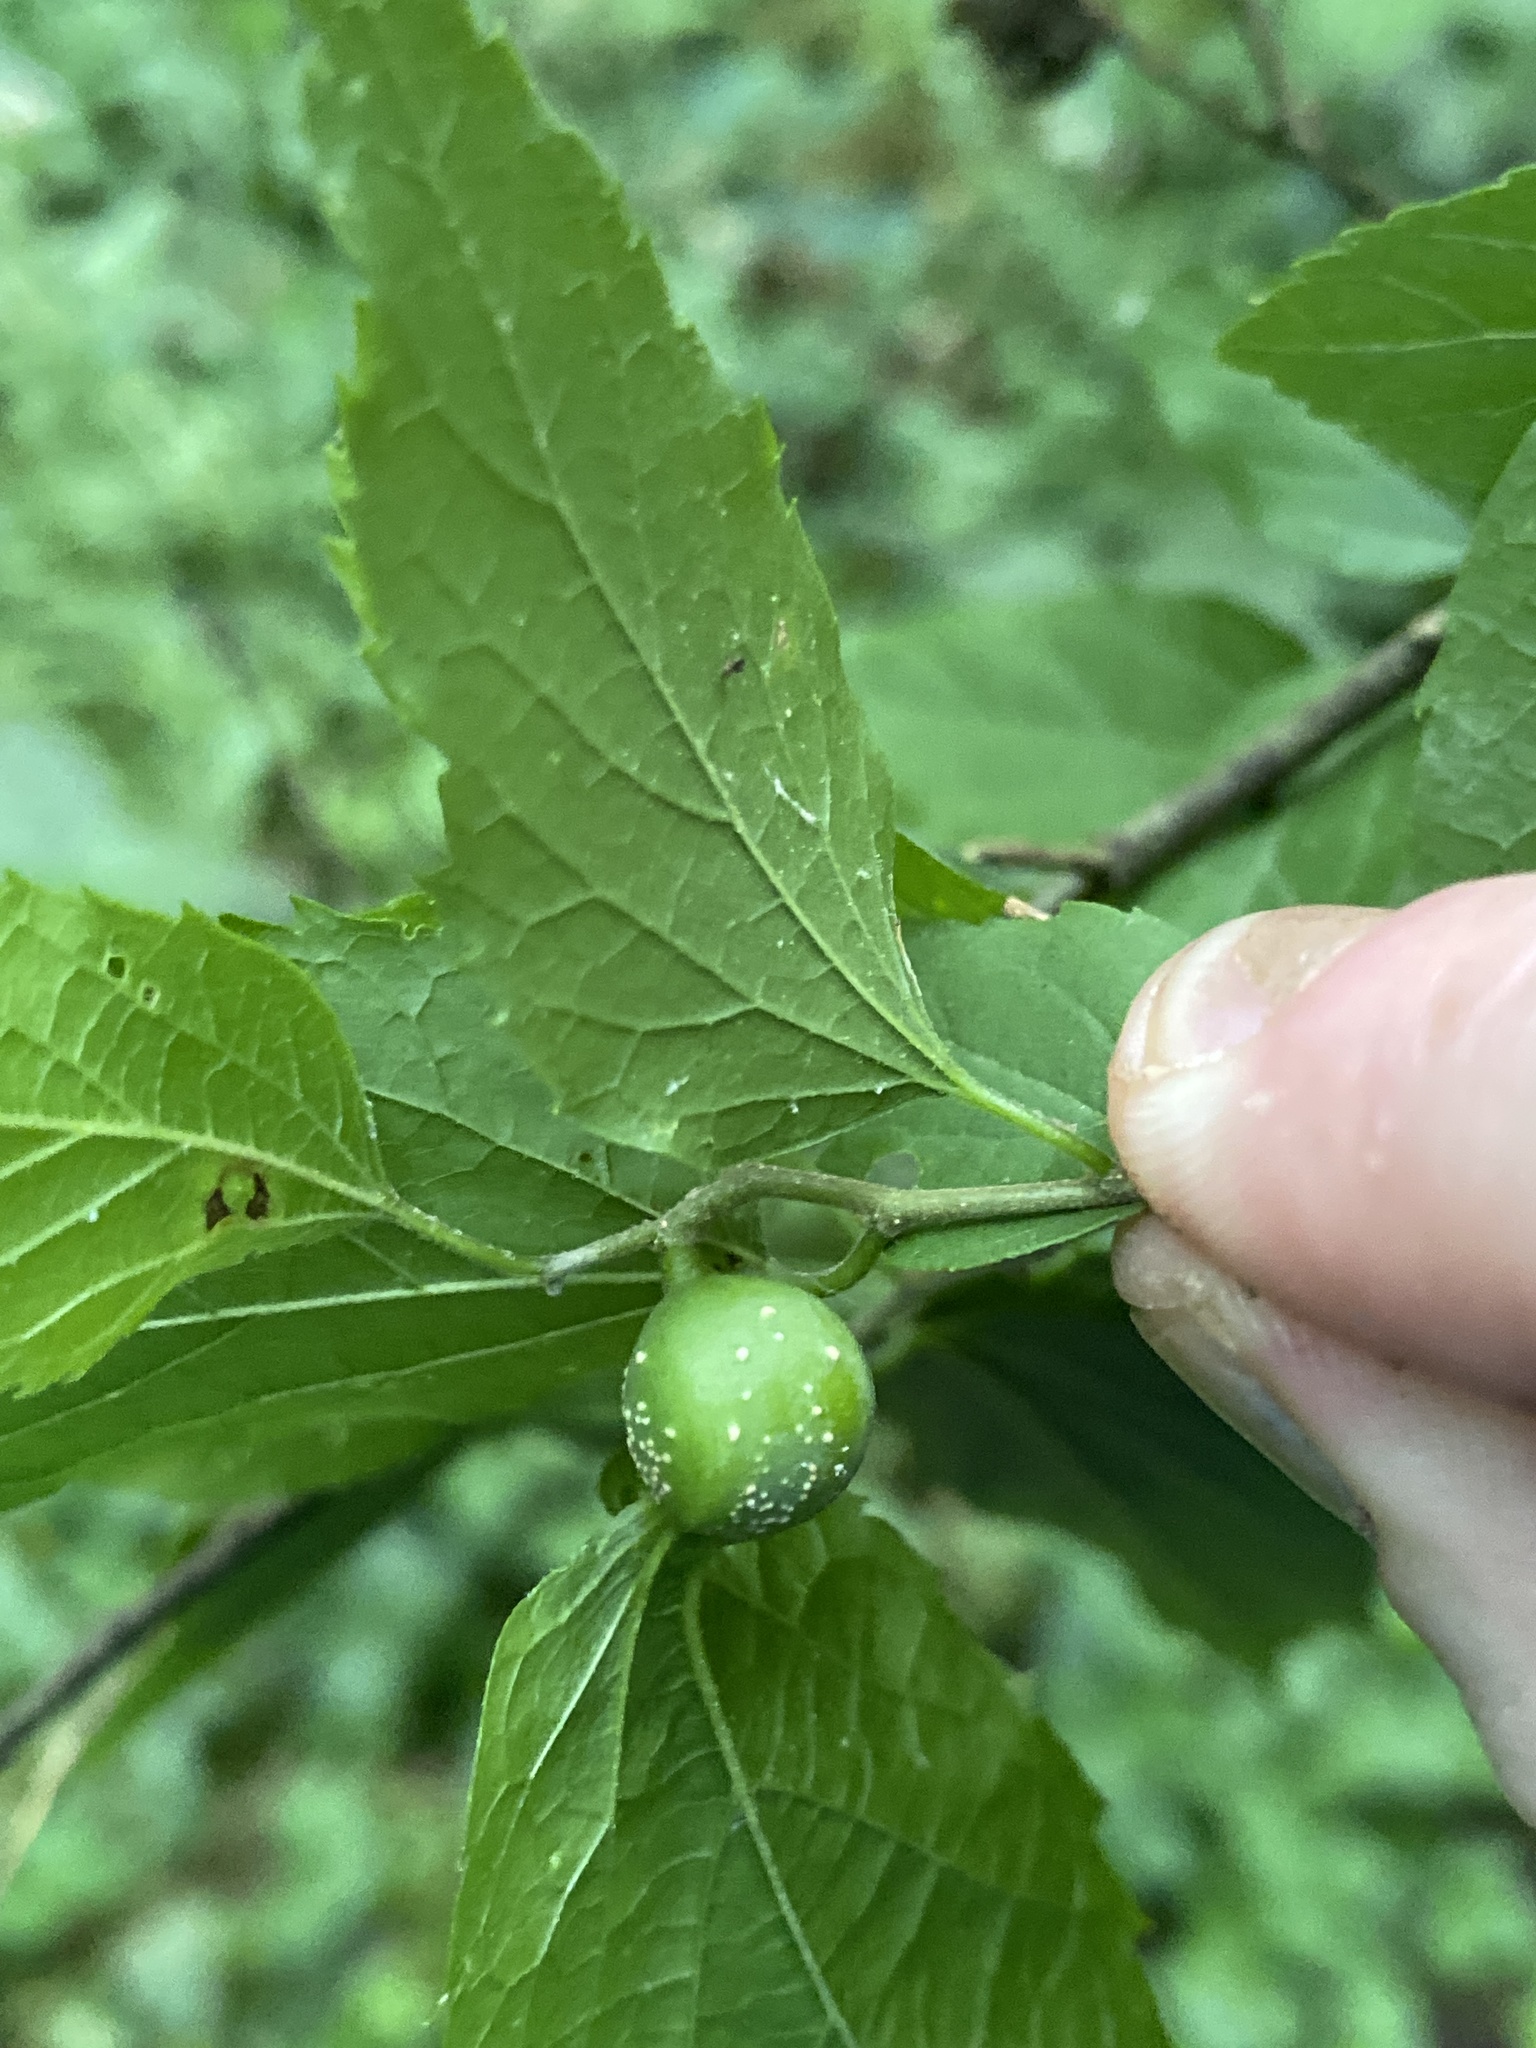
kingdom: Animalia
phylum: Arthropoda
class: Insecta
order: Hemiptera
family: Aphalaridae
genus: Pachypsylla
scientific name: Pachypsylla venusta
